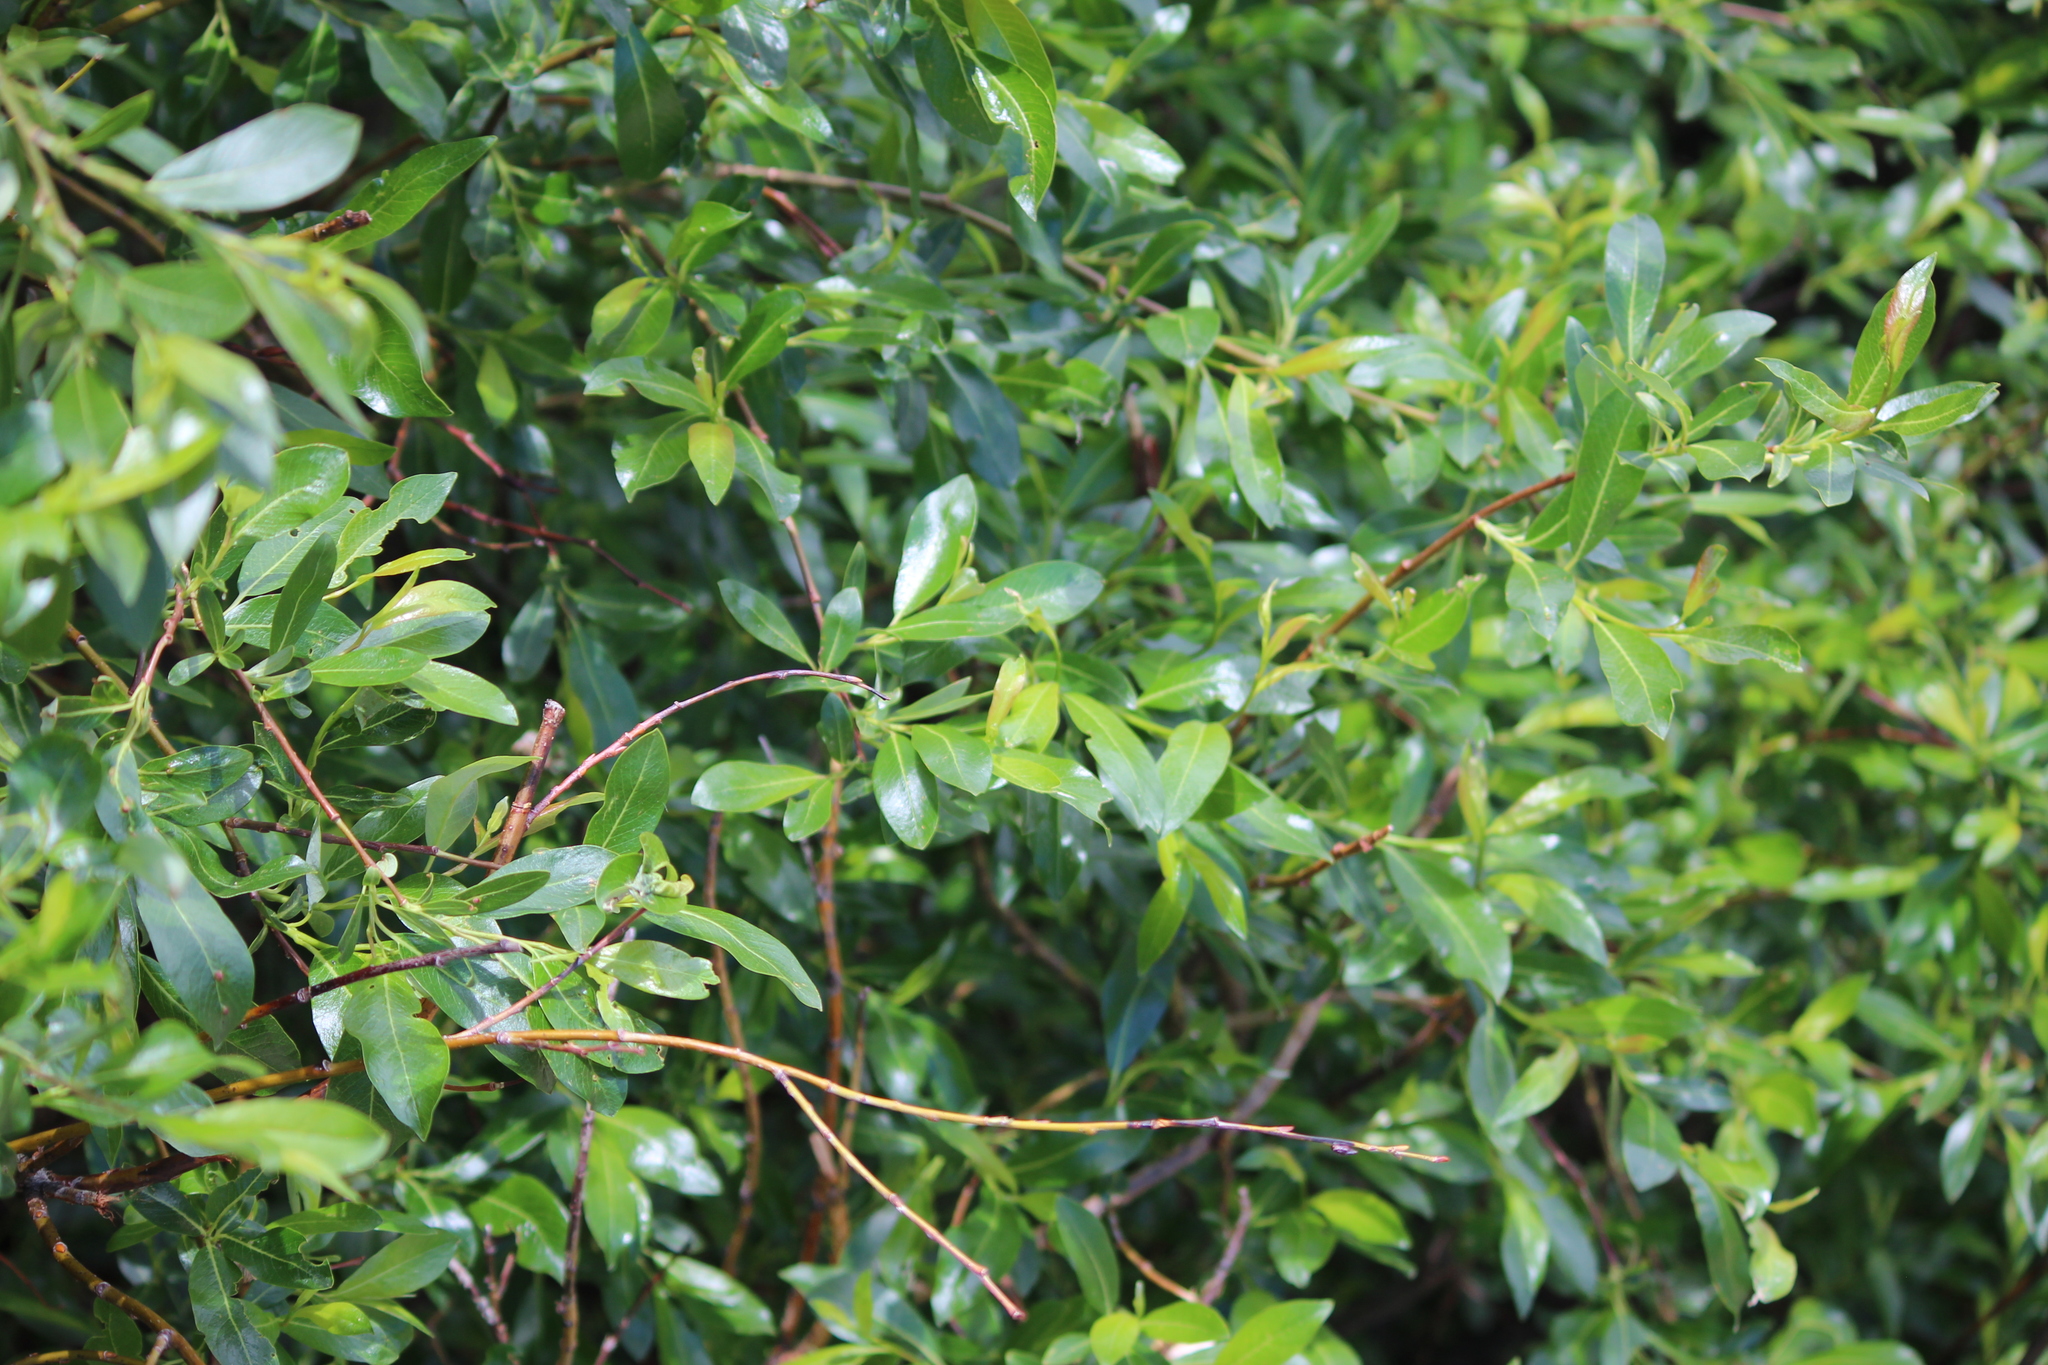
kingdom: Plantae
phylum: Tracheophyta
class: Magnoliopsida
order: Malpighiales
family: Salicaceae
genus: Salix
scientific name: Salix planifolia
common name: Mountain willow
